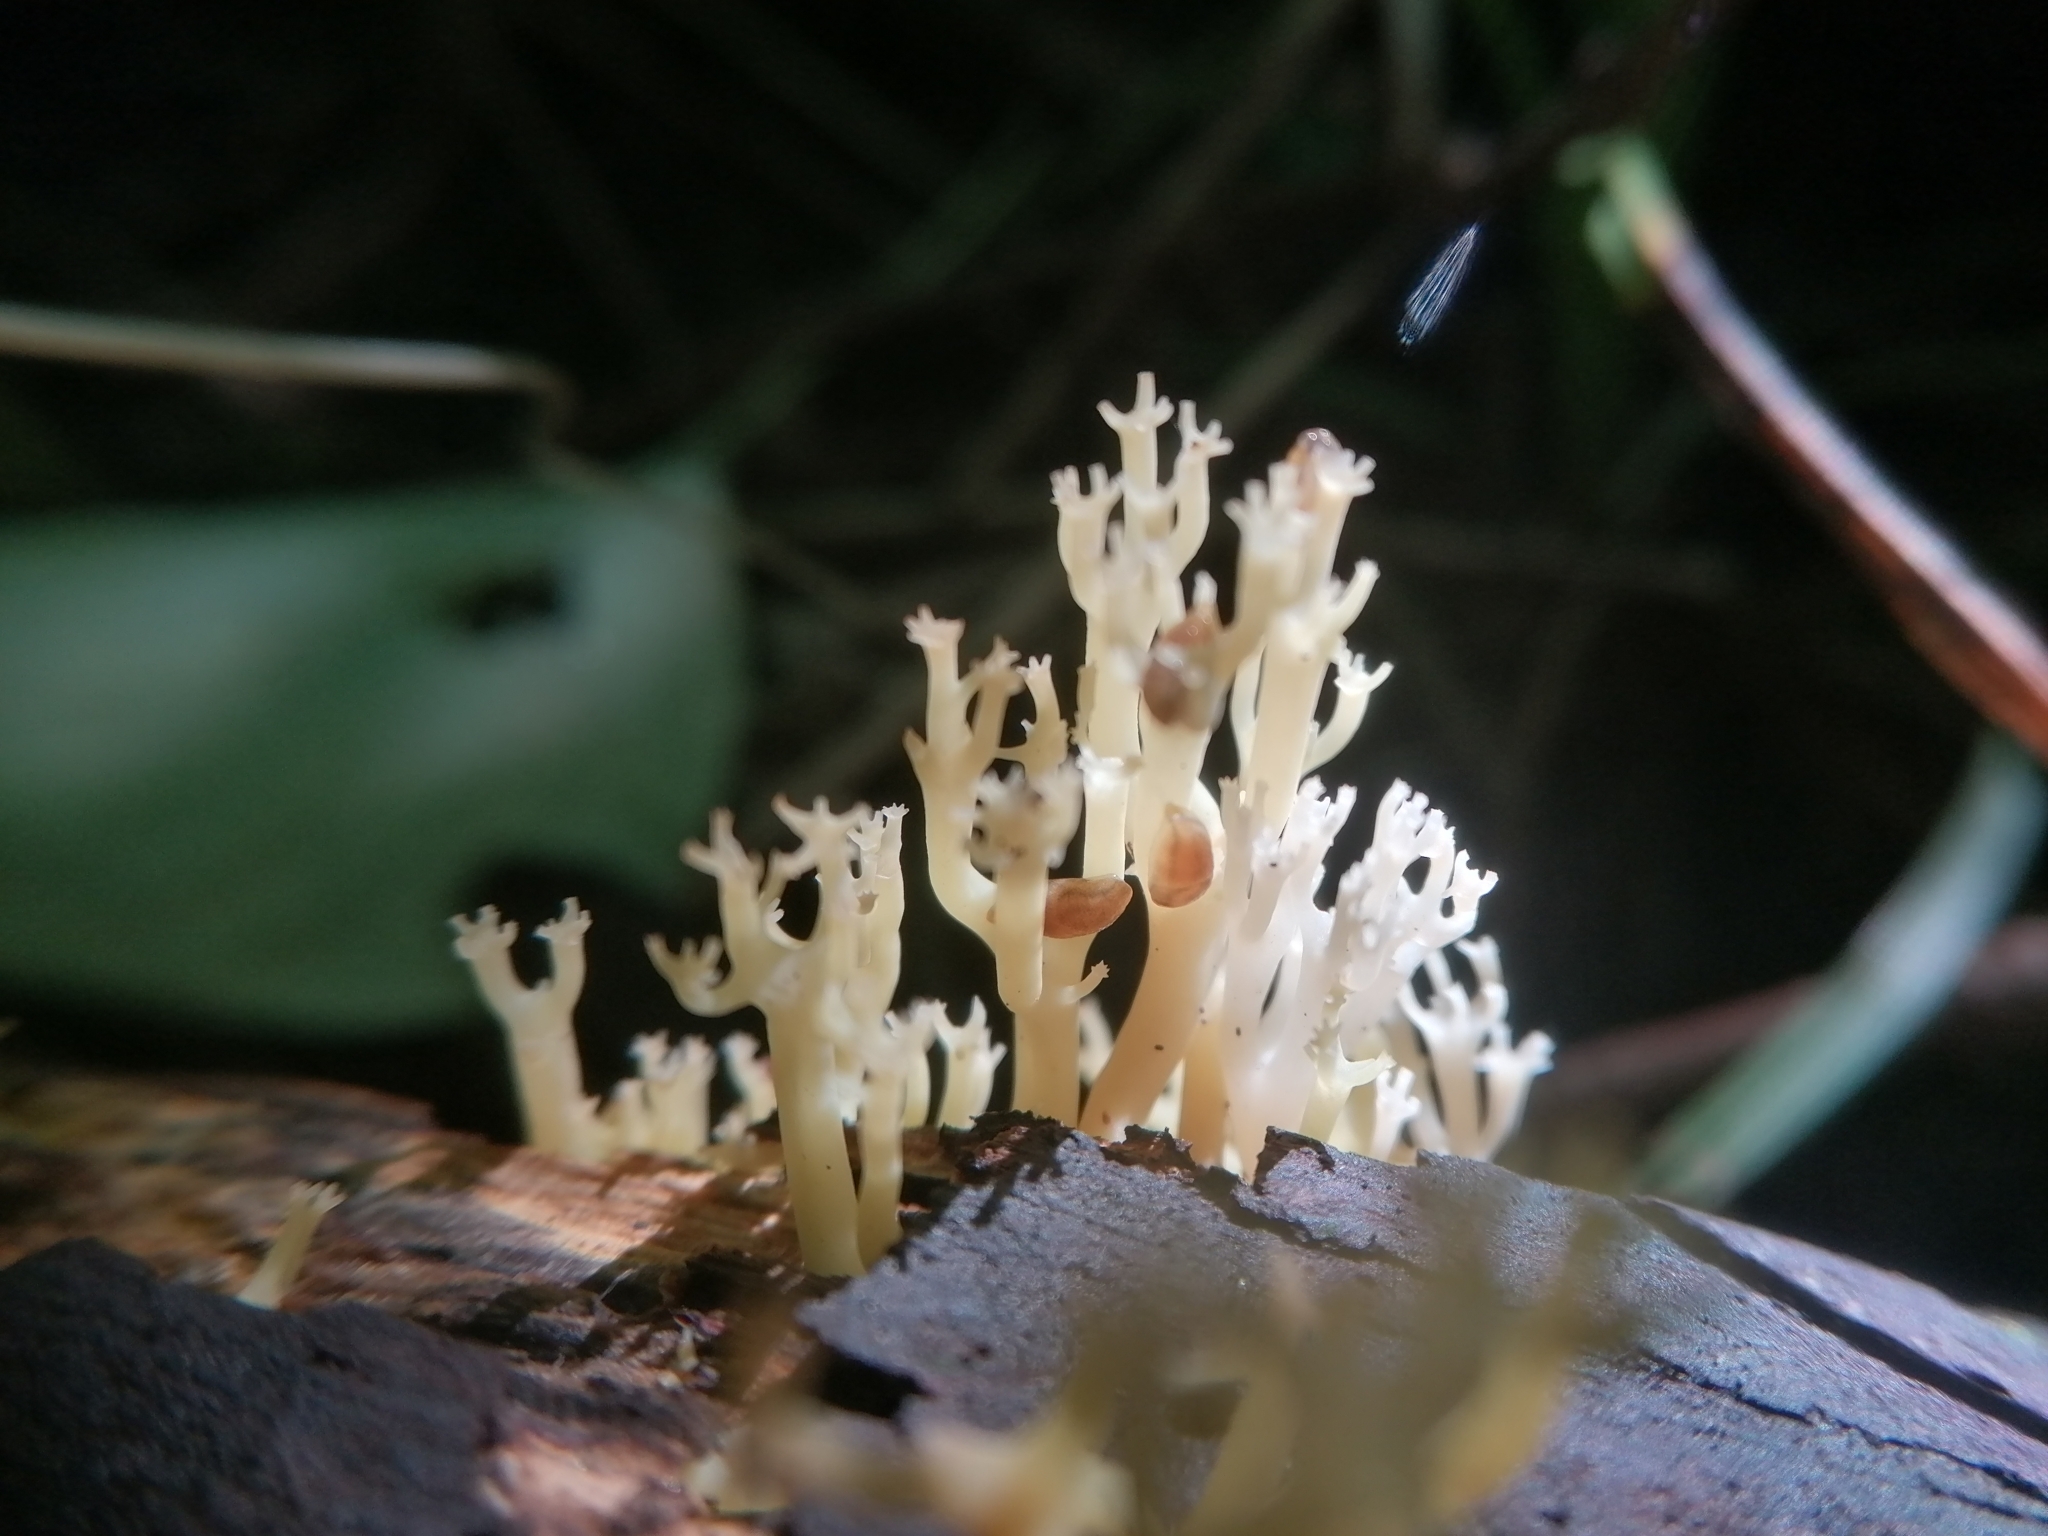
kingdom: Fungi
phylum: Basidiomycota
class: Agaricomycetes
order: Russulales
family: Auriscalpiaceae
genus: Artomyces
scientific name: Artomyces pyxidatus
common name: Crown-tipped coral fungus
